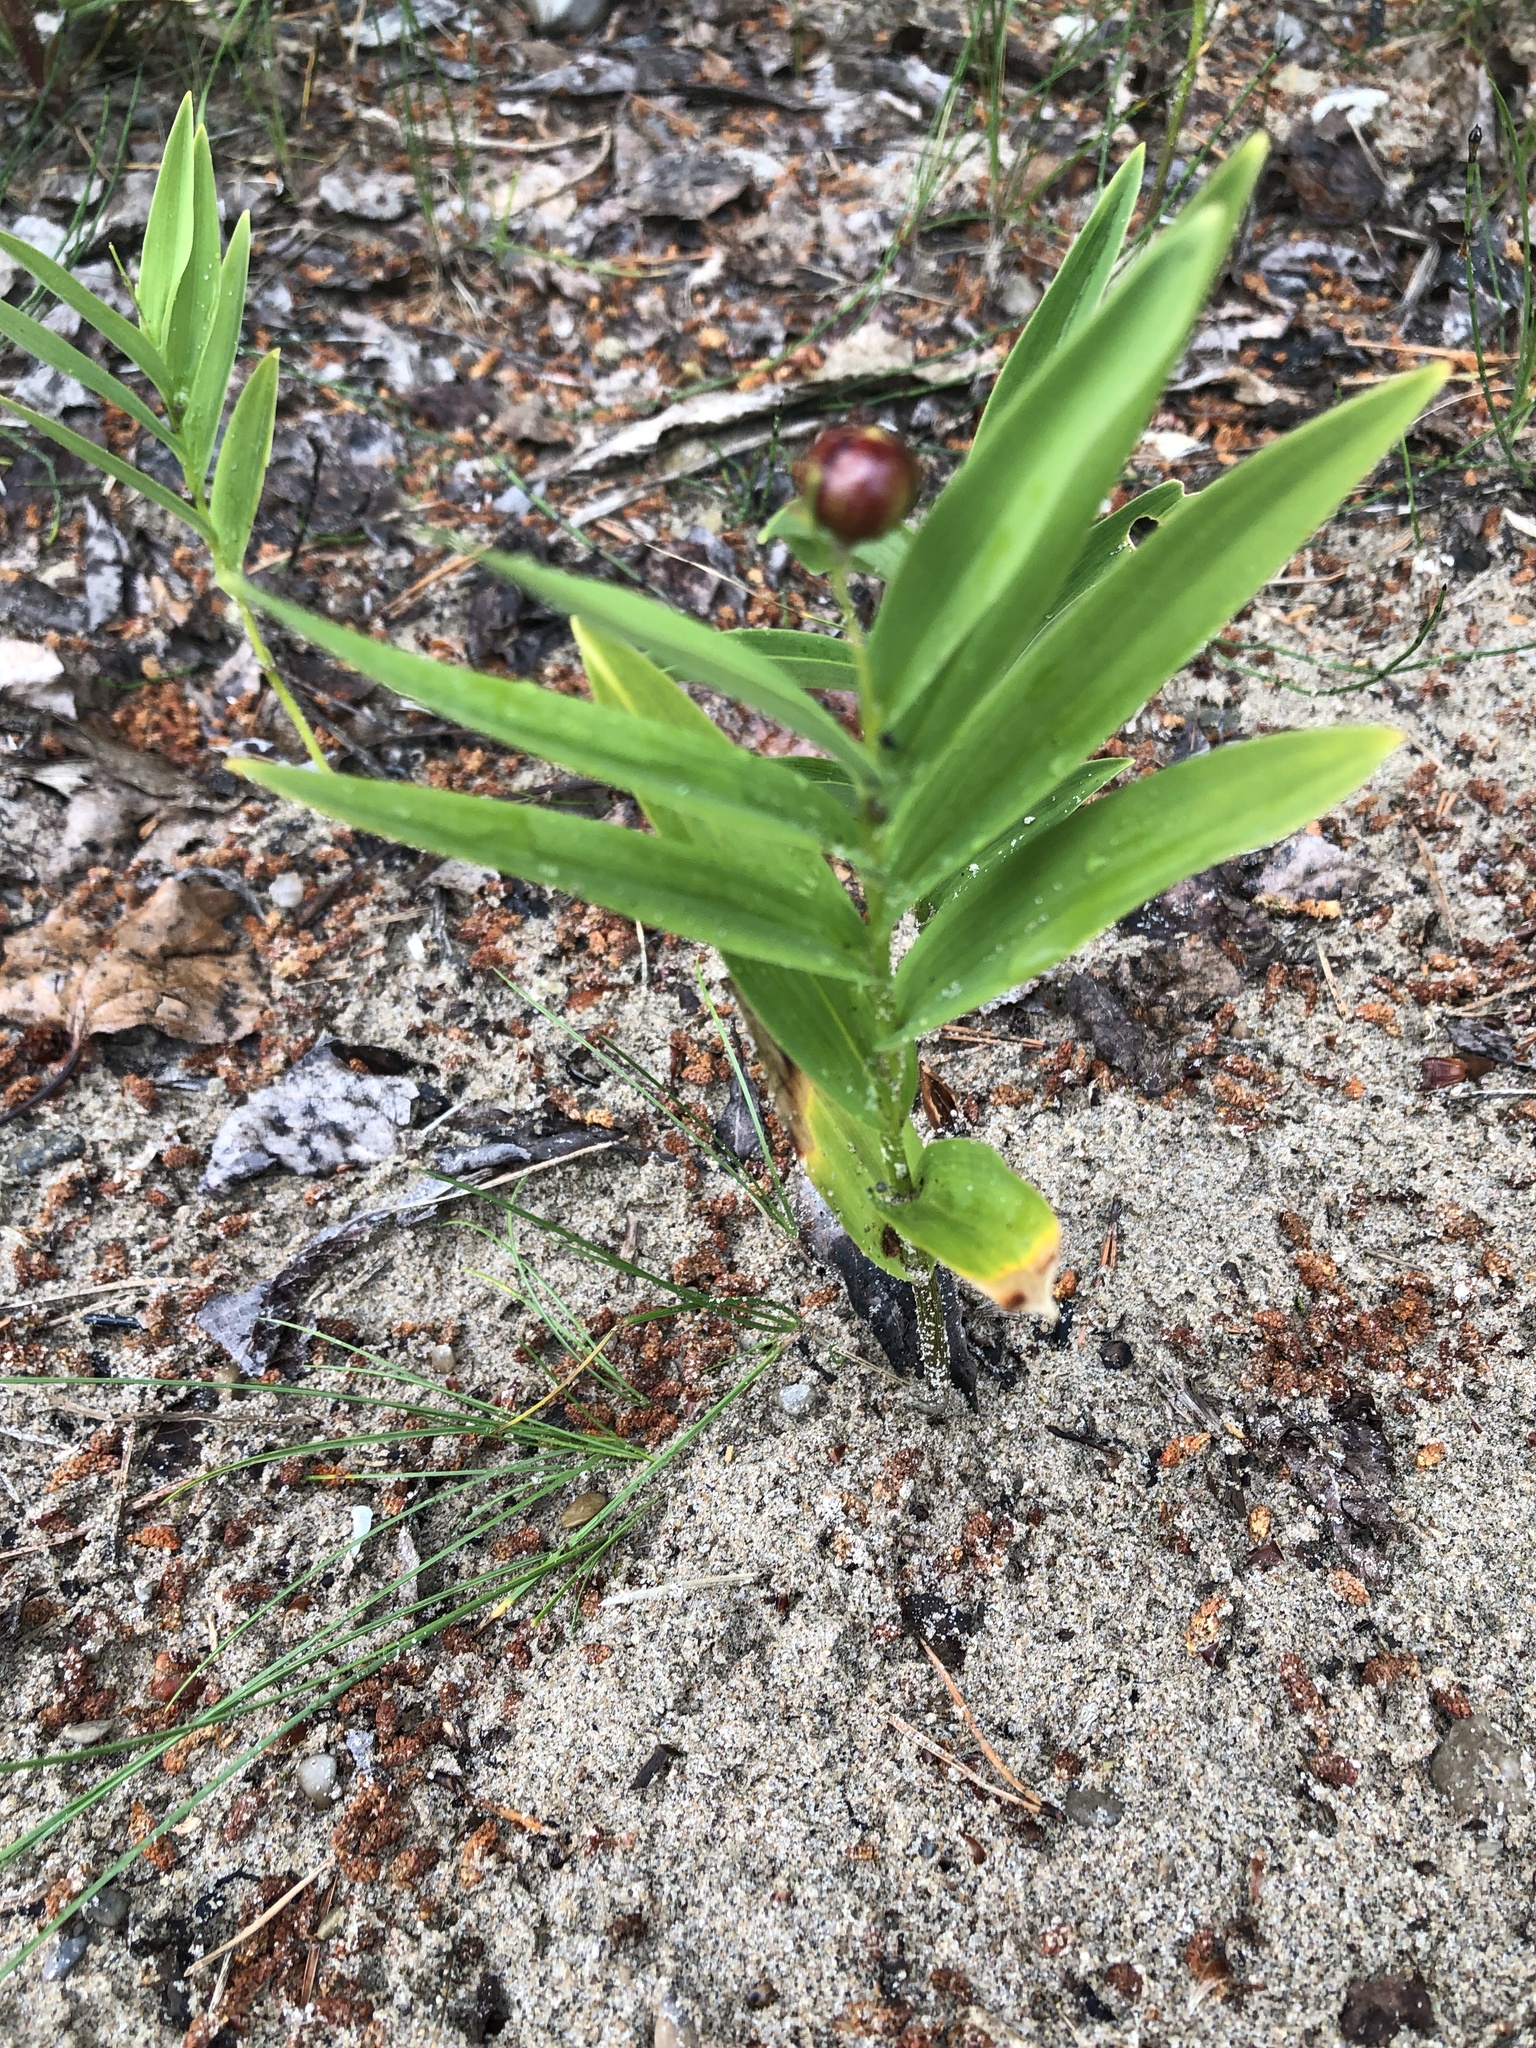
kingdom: Plantae
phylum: Tracheophyta
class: Liliopsida
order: Asparagales
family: Asparagaceae
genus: Maianthemum
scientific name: Maianthemum stellatum
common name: Little false solomon's seal
